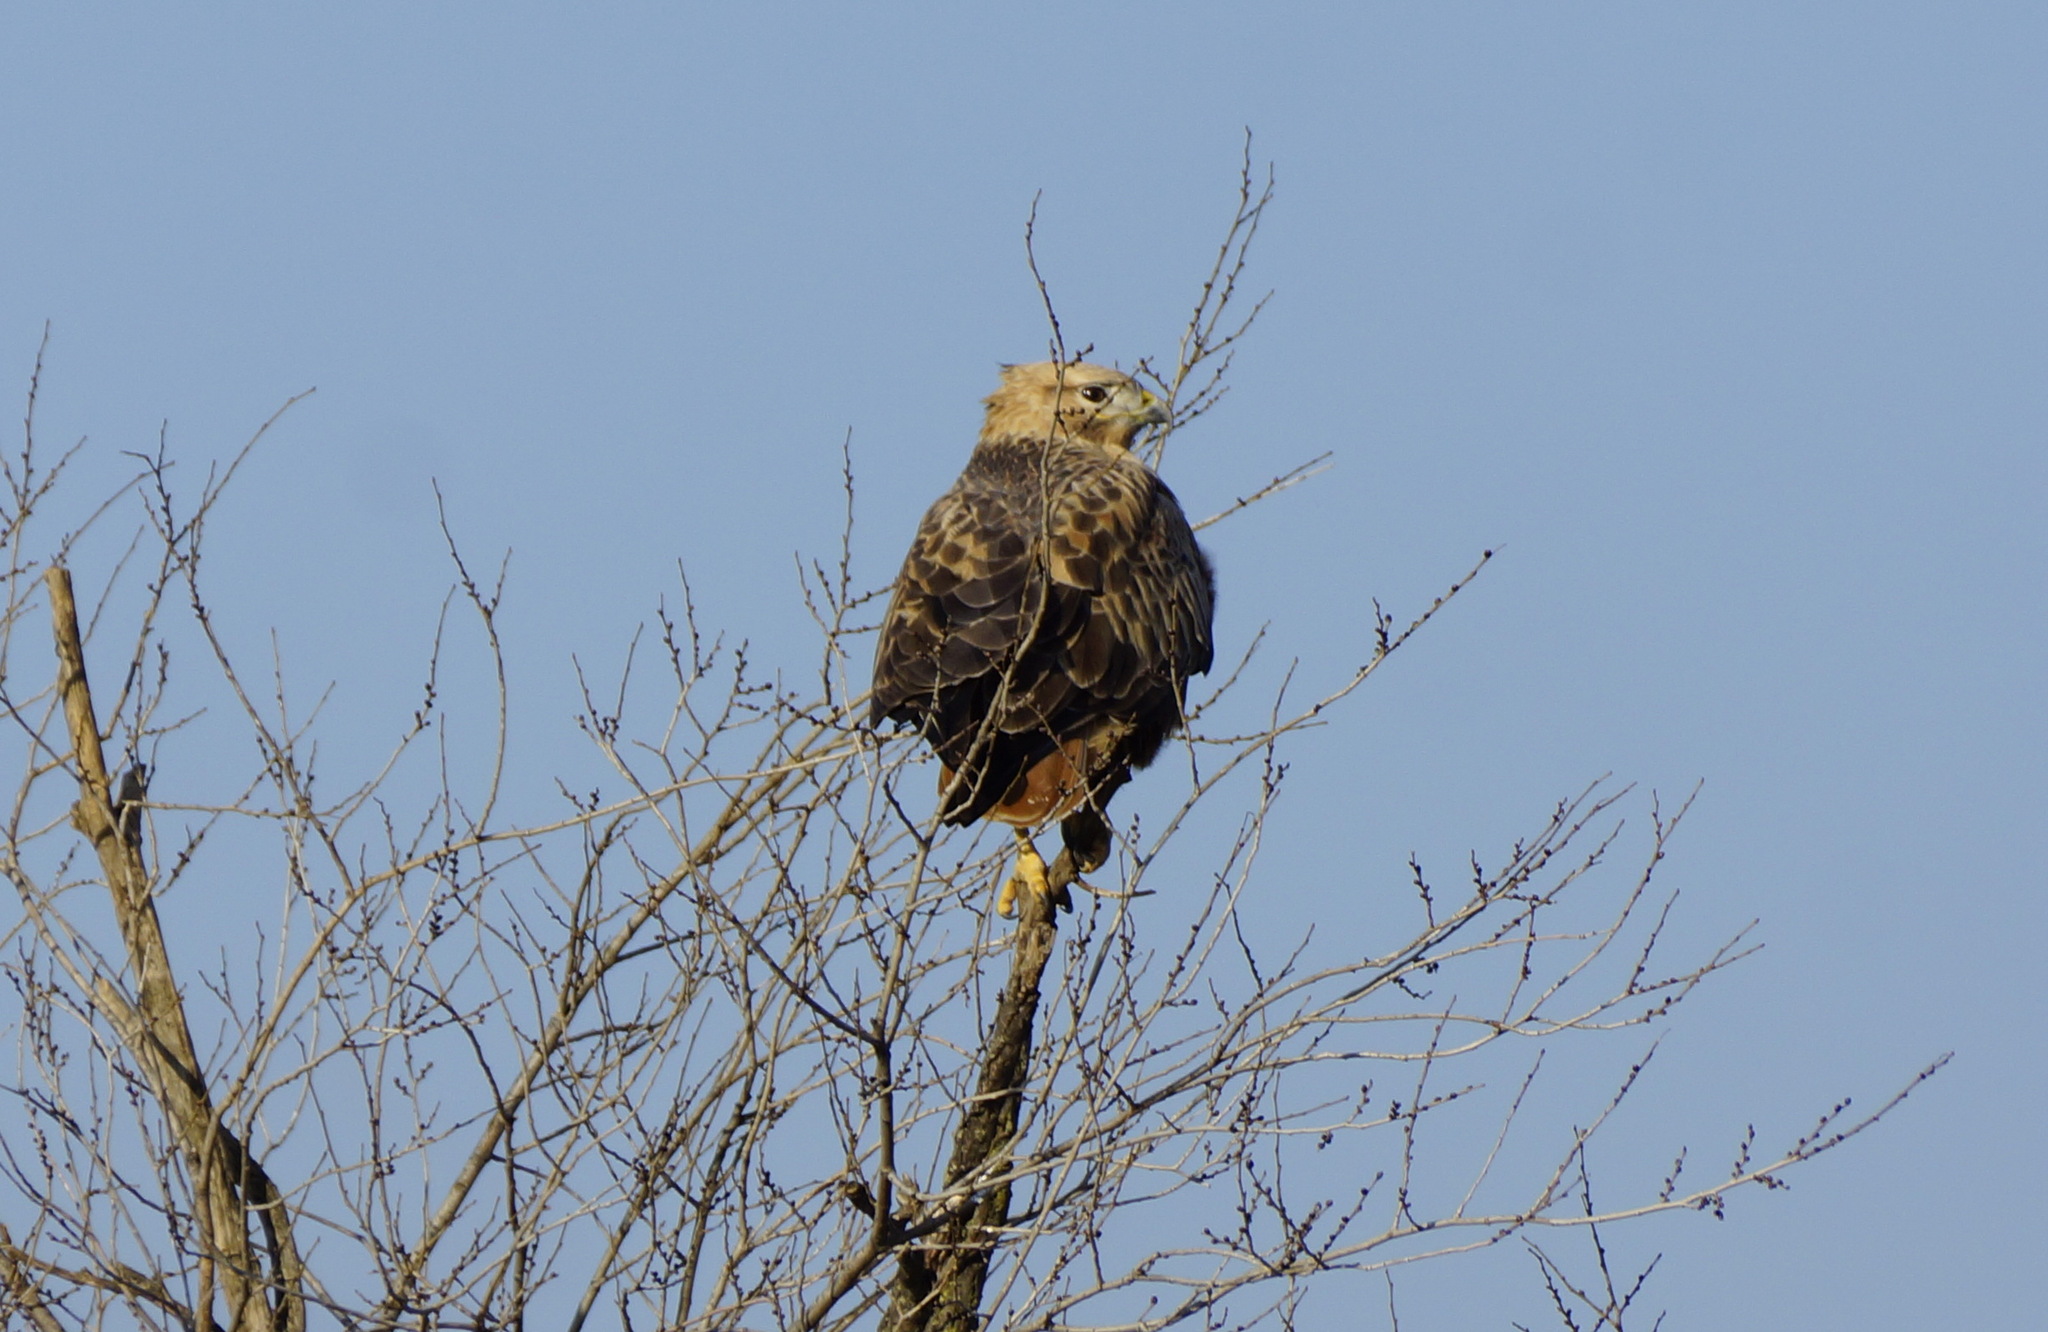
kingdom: Animalia
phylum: Chordata
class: Aves
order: Accipitriformes
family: Accipitridae
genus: Buteo
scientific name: Buteo rufinus
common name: Long-legged buzzard
